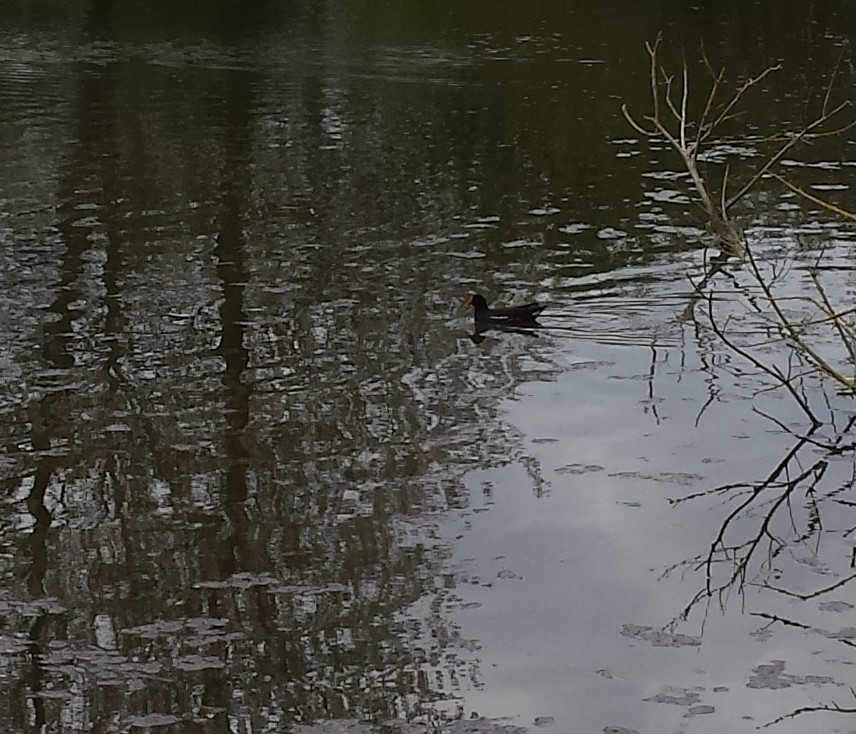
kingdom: Animalia
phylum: Chordata
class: Aves
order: Gruiformes
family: Rallidae
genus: Gallinula
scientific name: Gallinula chloropus
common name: Common moorhen
